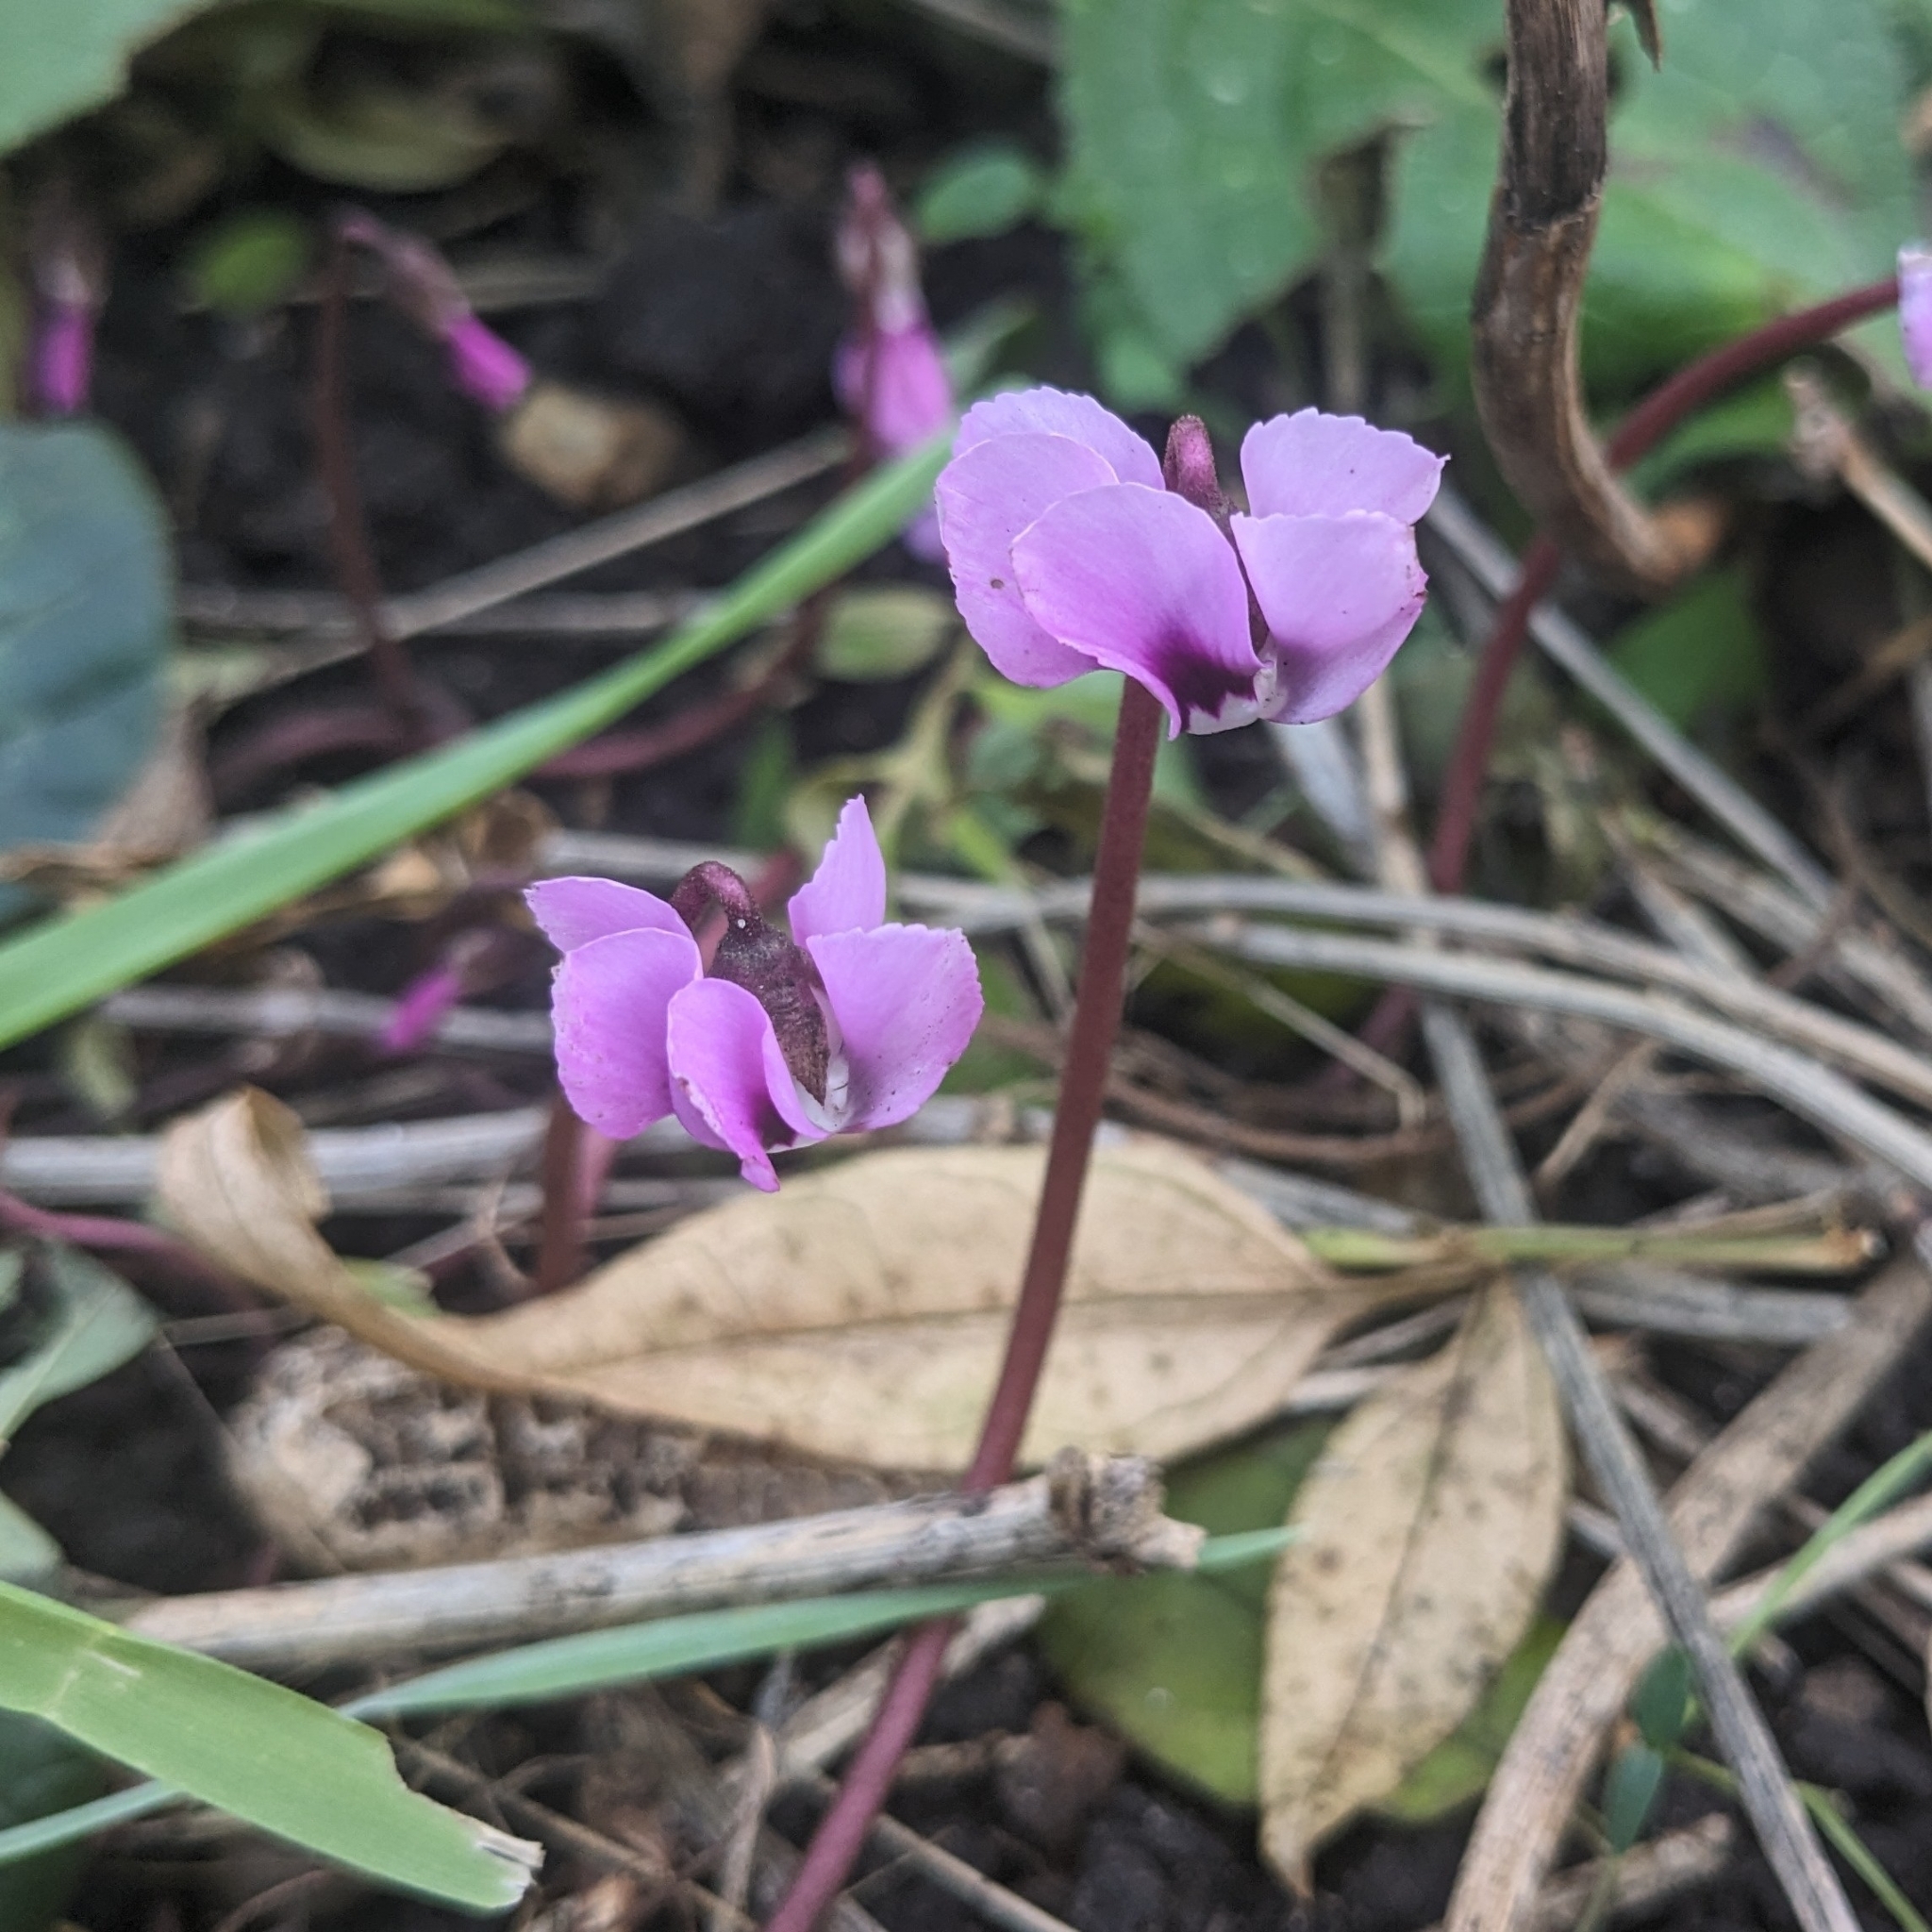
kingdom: Plantae
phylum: Tracheophyta
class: Magnoliopsida
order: Ericales
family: Primulaceae
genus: Cyclamen
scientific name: Cyclamen coum
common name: Eastern sowbread
